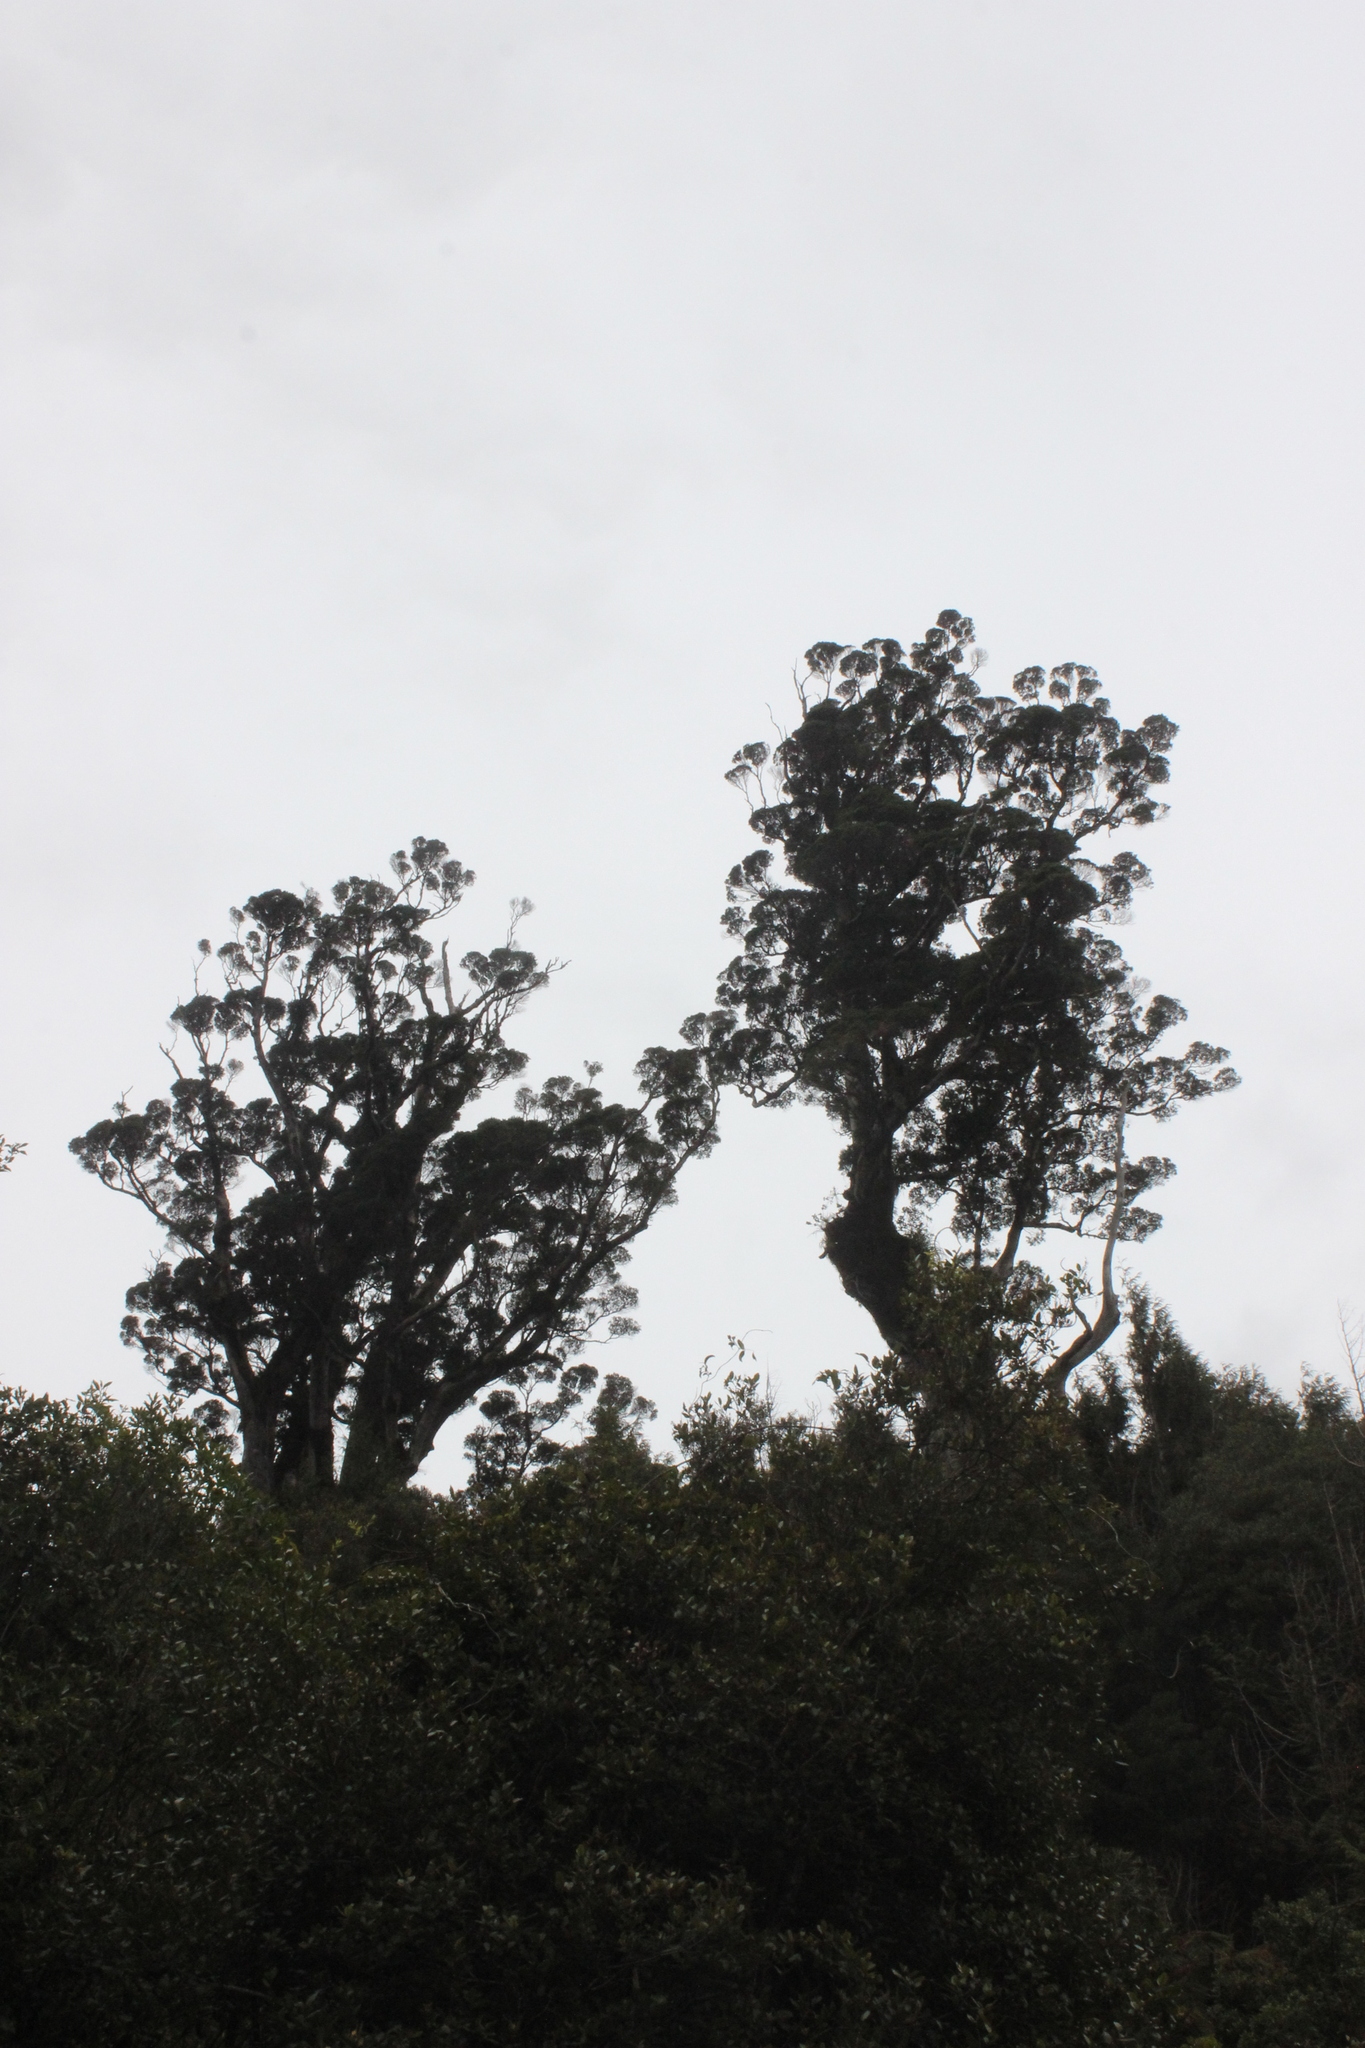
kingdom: Plantae
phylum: Tracheophyta
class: Magnoliopsida
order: Myrtales
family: Myrtaceae
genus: Metrosideros
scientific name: Metrosideros robusta
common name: Northern rata
